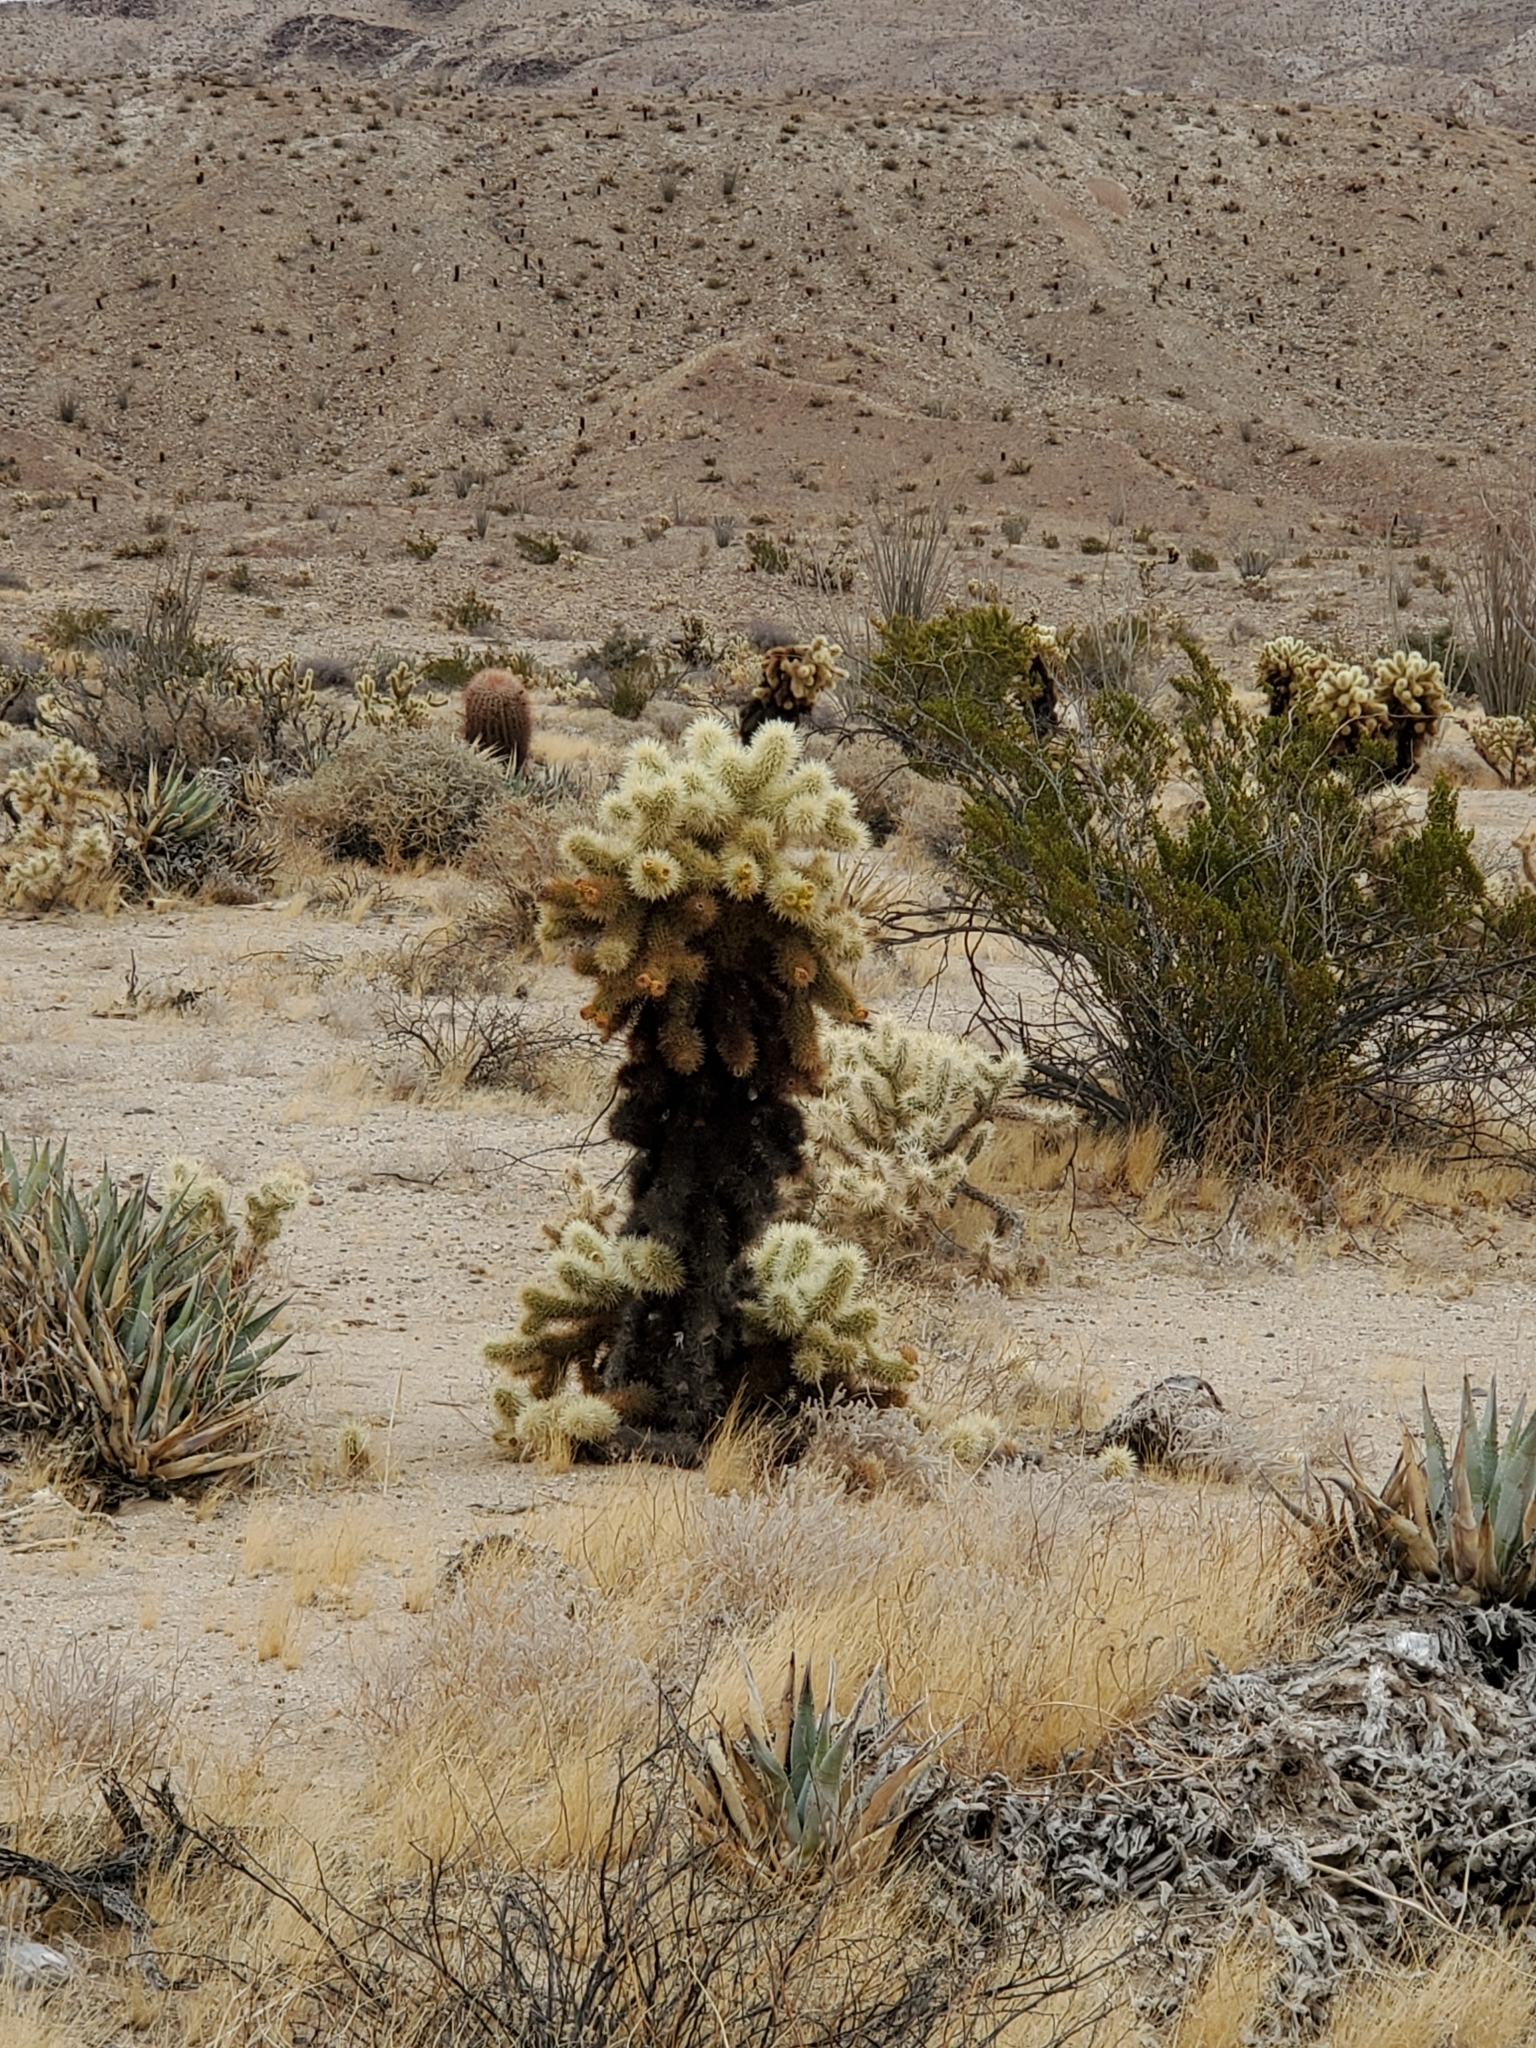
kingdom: Plantae
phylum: Tracheophyta
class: Magnoliopsida
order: Caryophyllales
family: Cactaceae
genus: Cylindropuntia
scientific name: Cylindropuntia fosbergii
